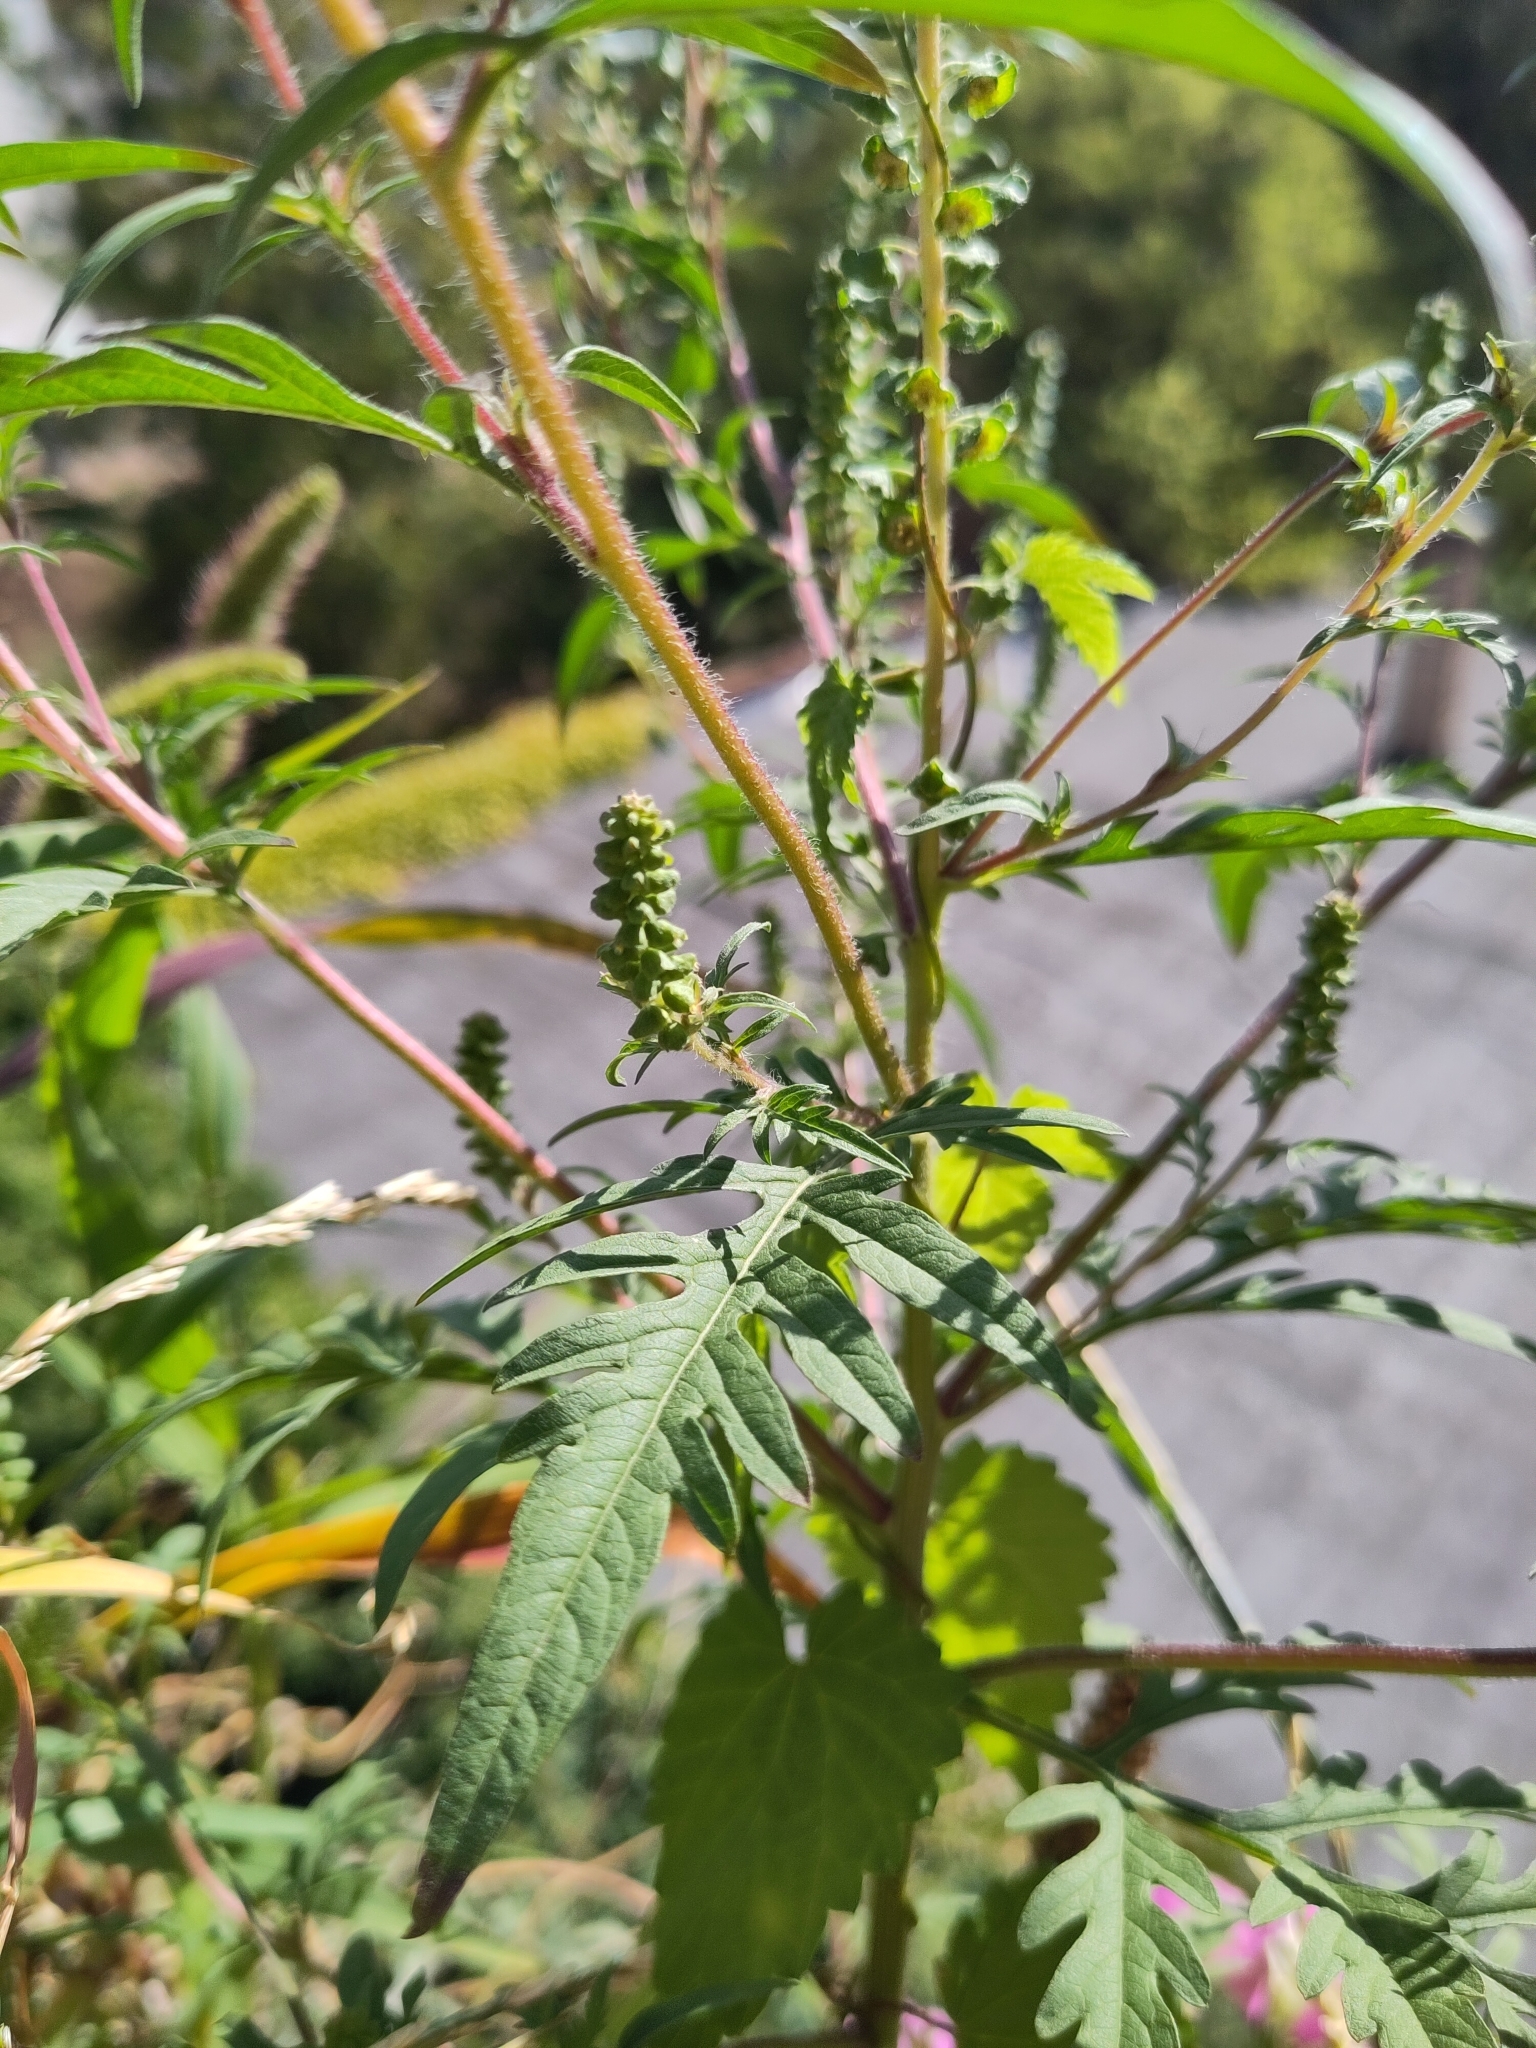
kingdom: Plantae
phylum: Tracheophyta
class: Magnoliopsida
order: Asterales
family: Asteraceae
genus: Ambrosia
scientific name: Ambrosia artemisiifolia
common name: Annual ragweed
